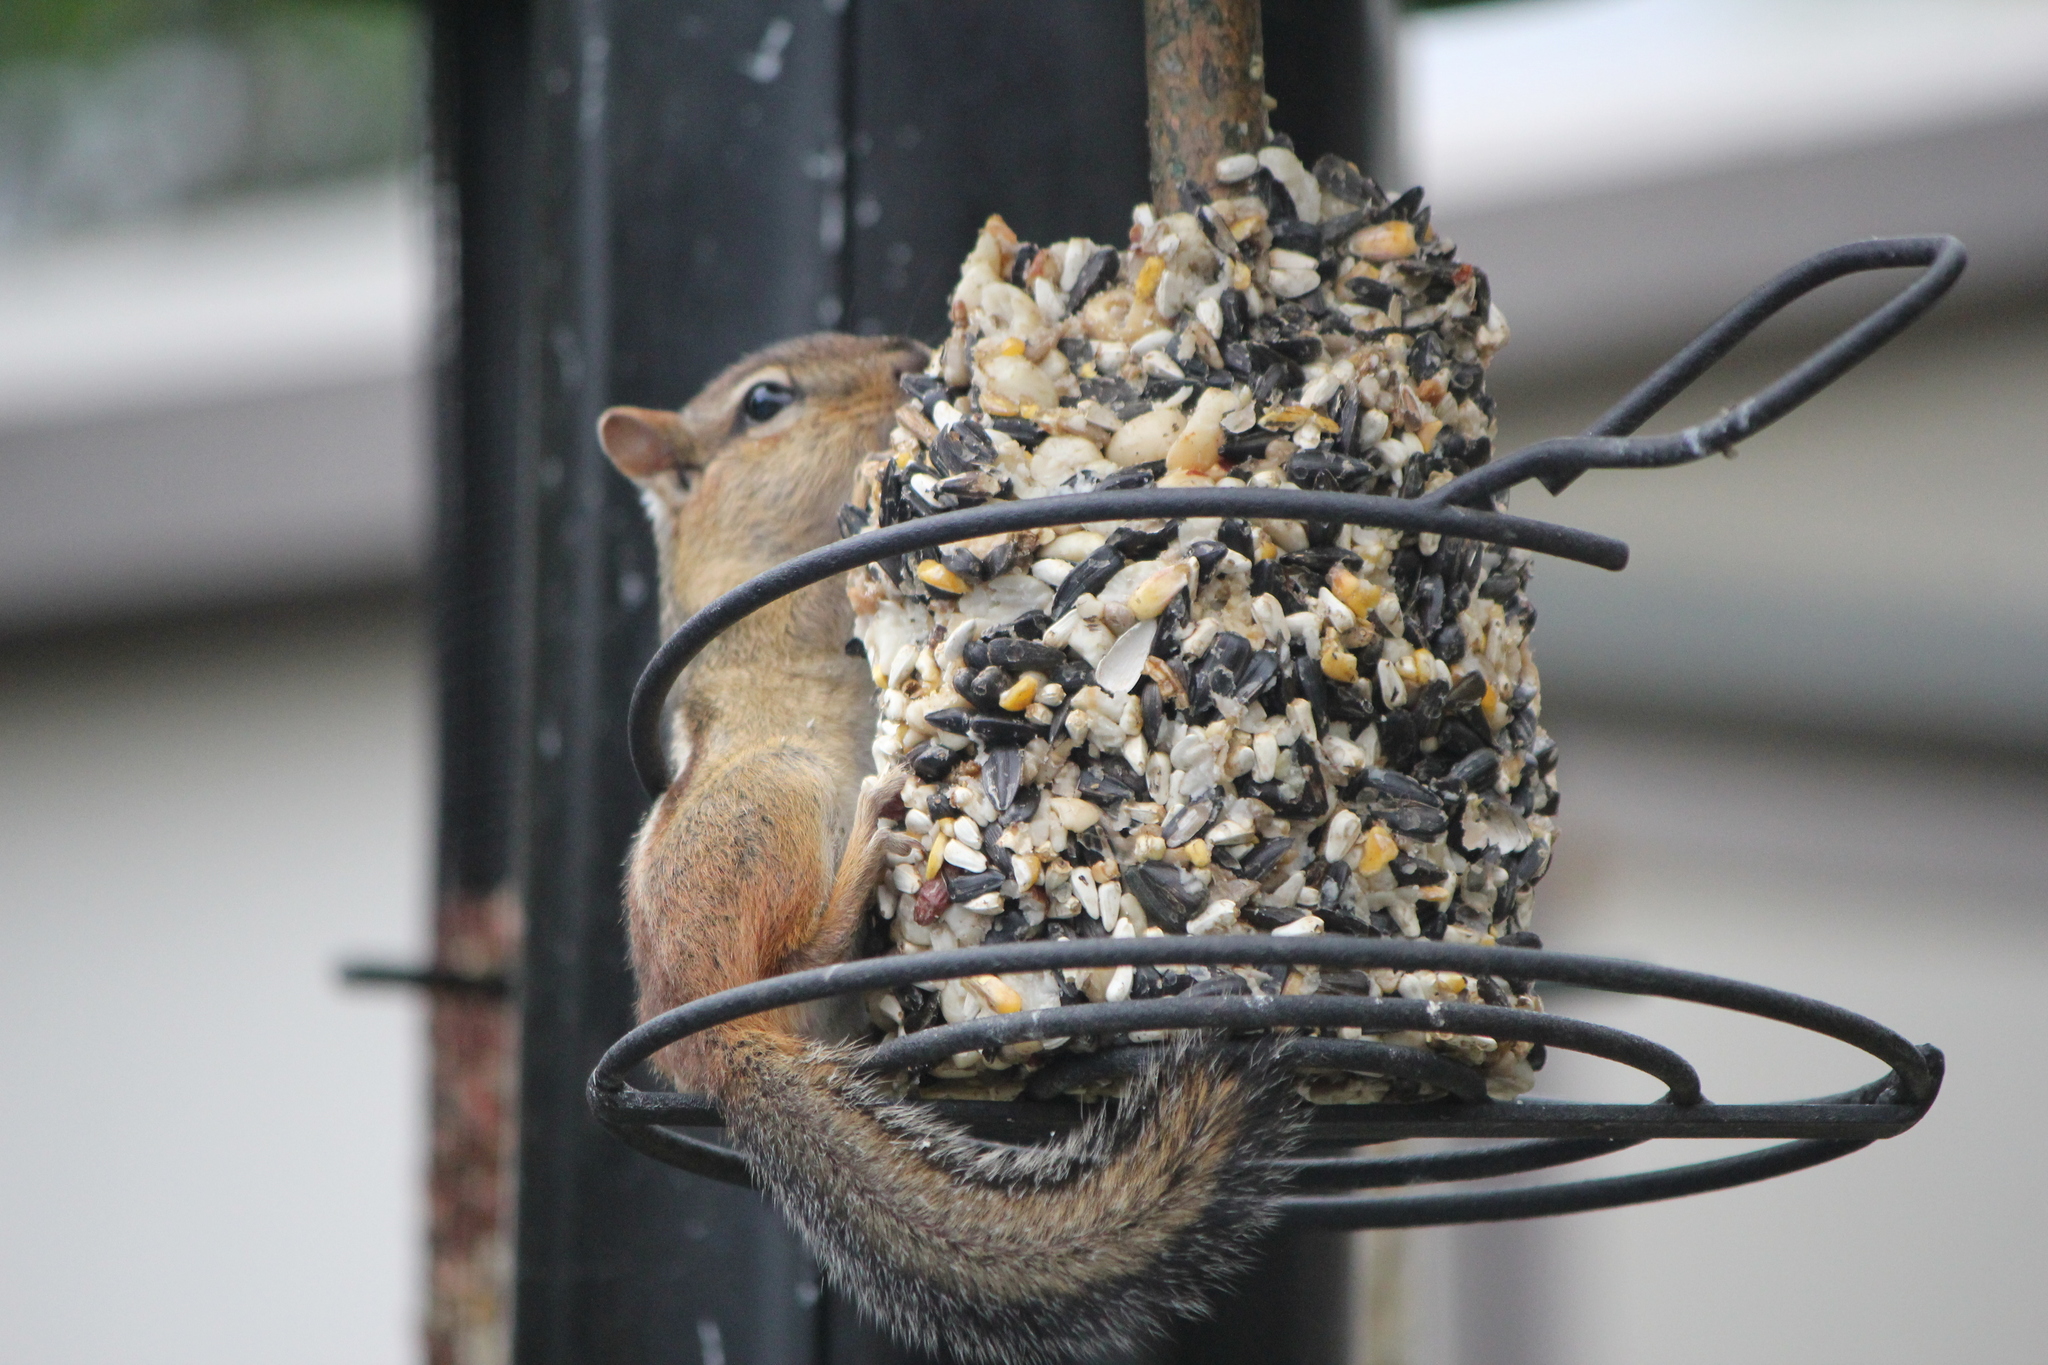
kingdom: Animalia
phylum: Chordata
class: Mammalia
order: Rodentia
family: Sciuridae
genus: Tamias
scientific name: Tamias striatus
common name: Eastern chipmunk
